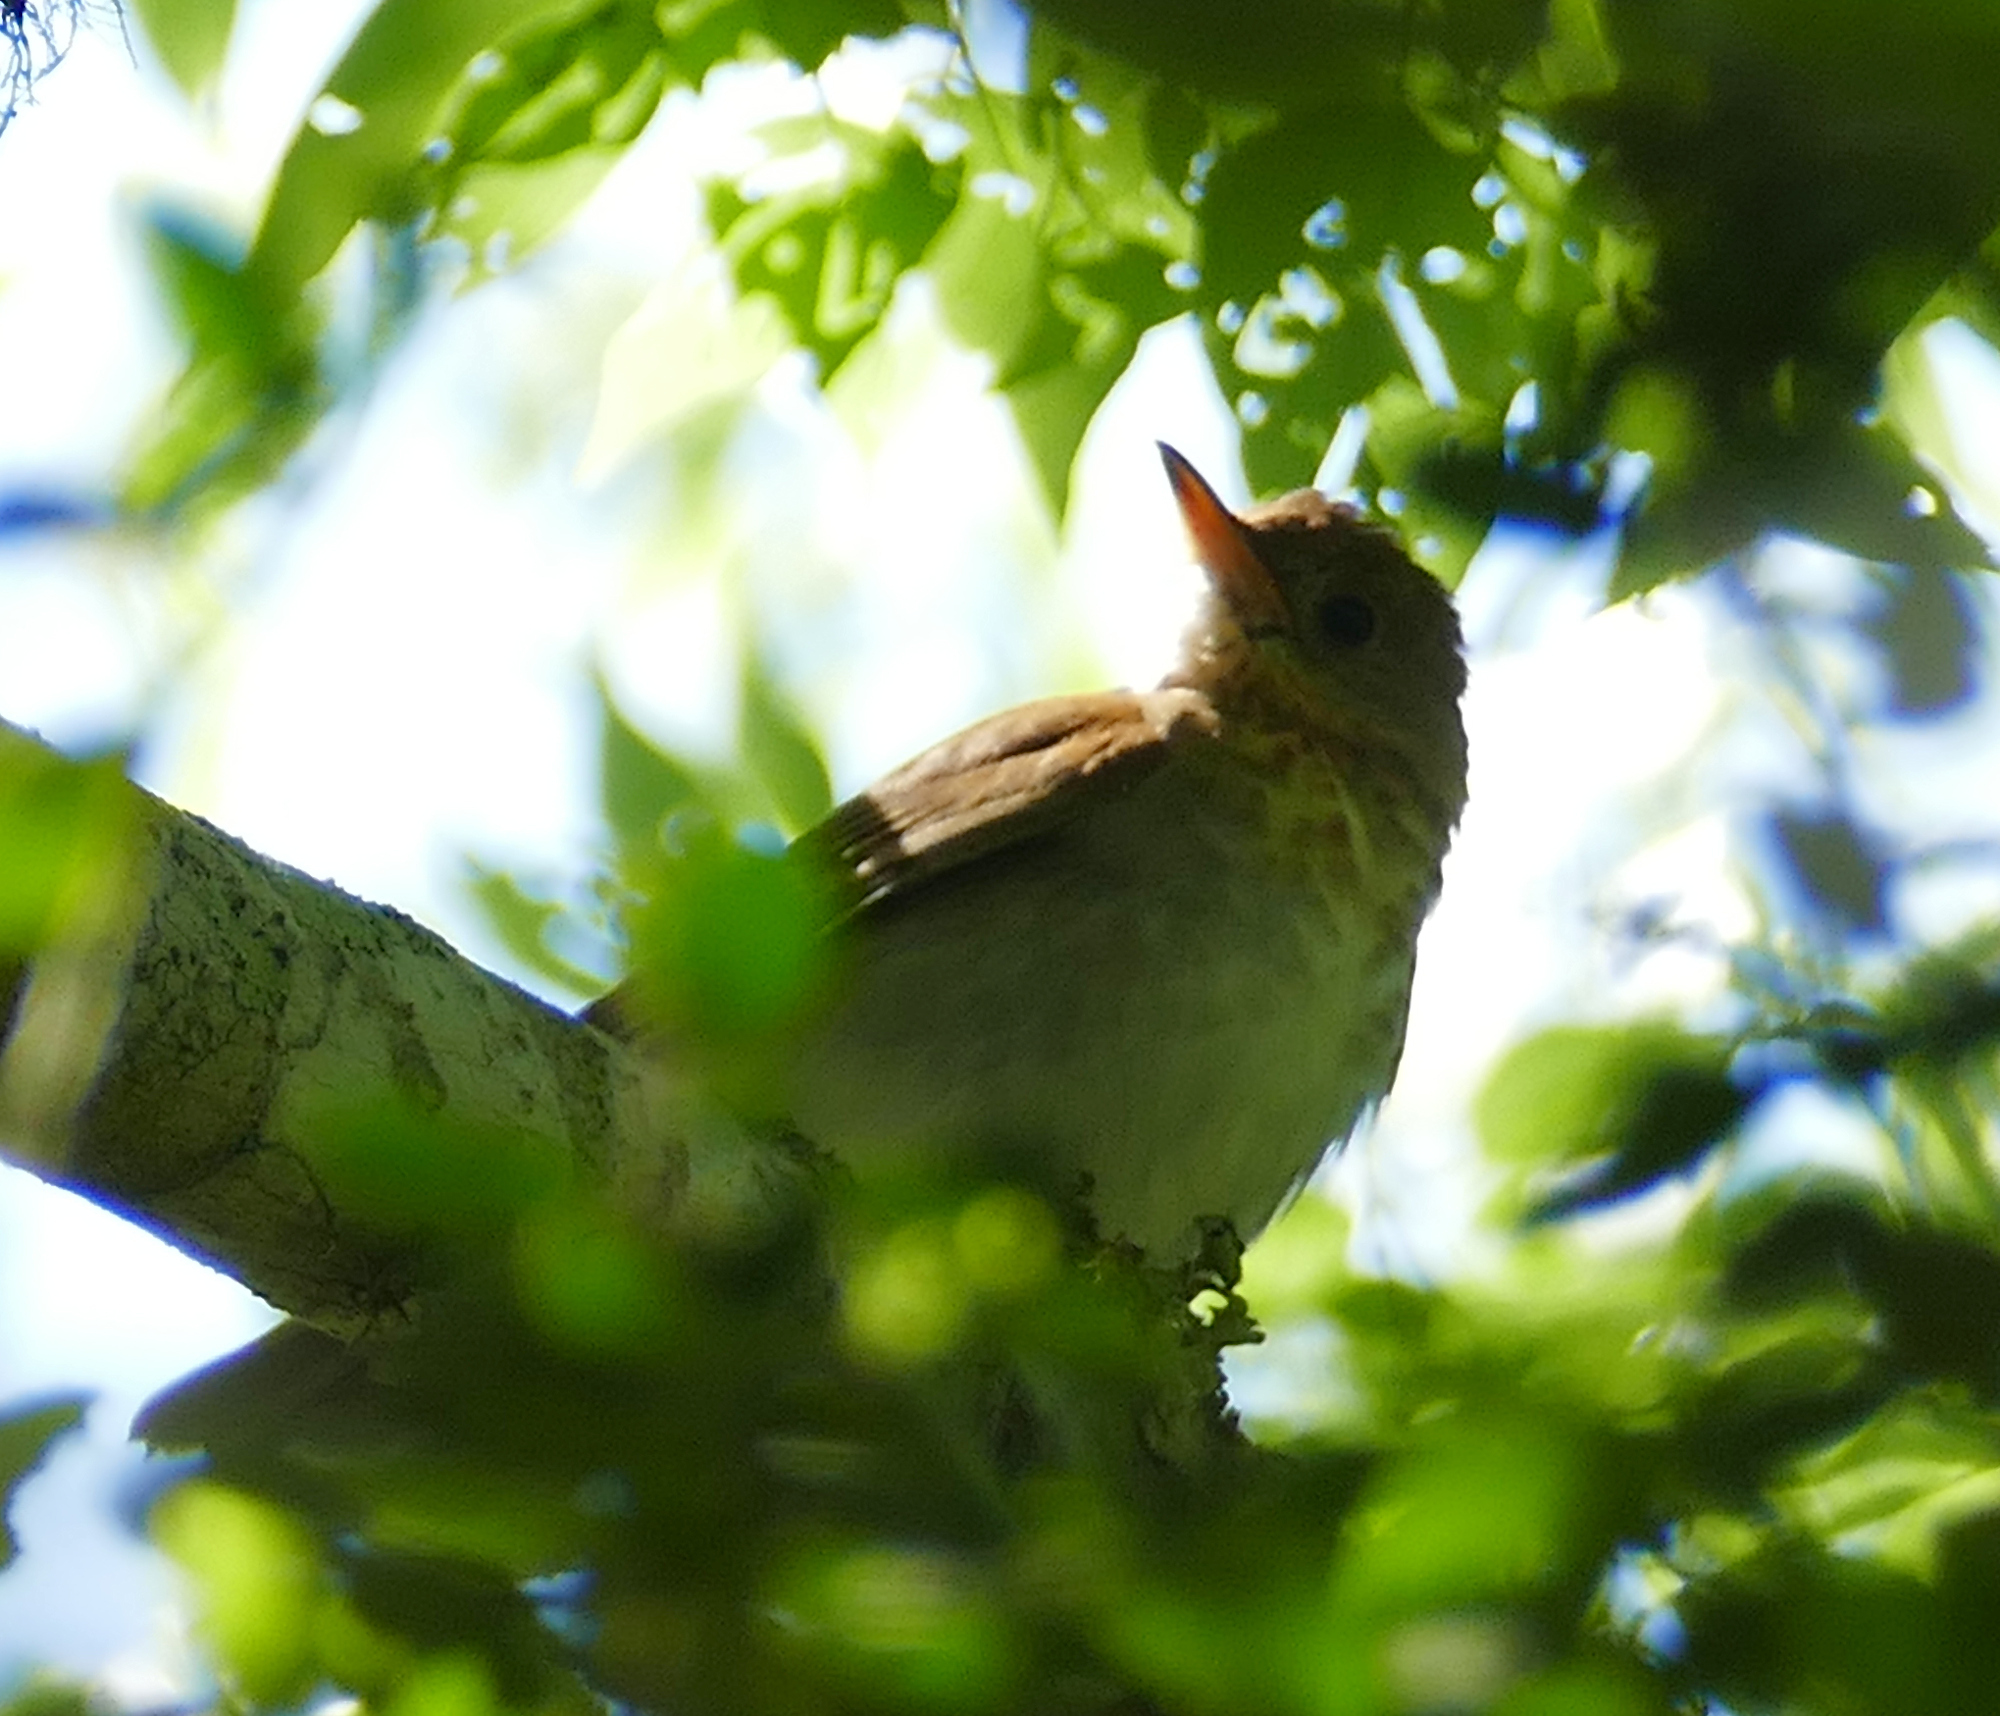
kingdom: Animalia
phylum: Chordata
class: Aves
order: Passeriformes
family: Turdidae
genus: Catharus
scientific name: Catharus fuscescens
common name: Veery
